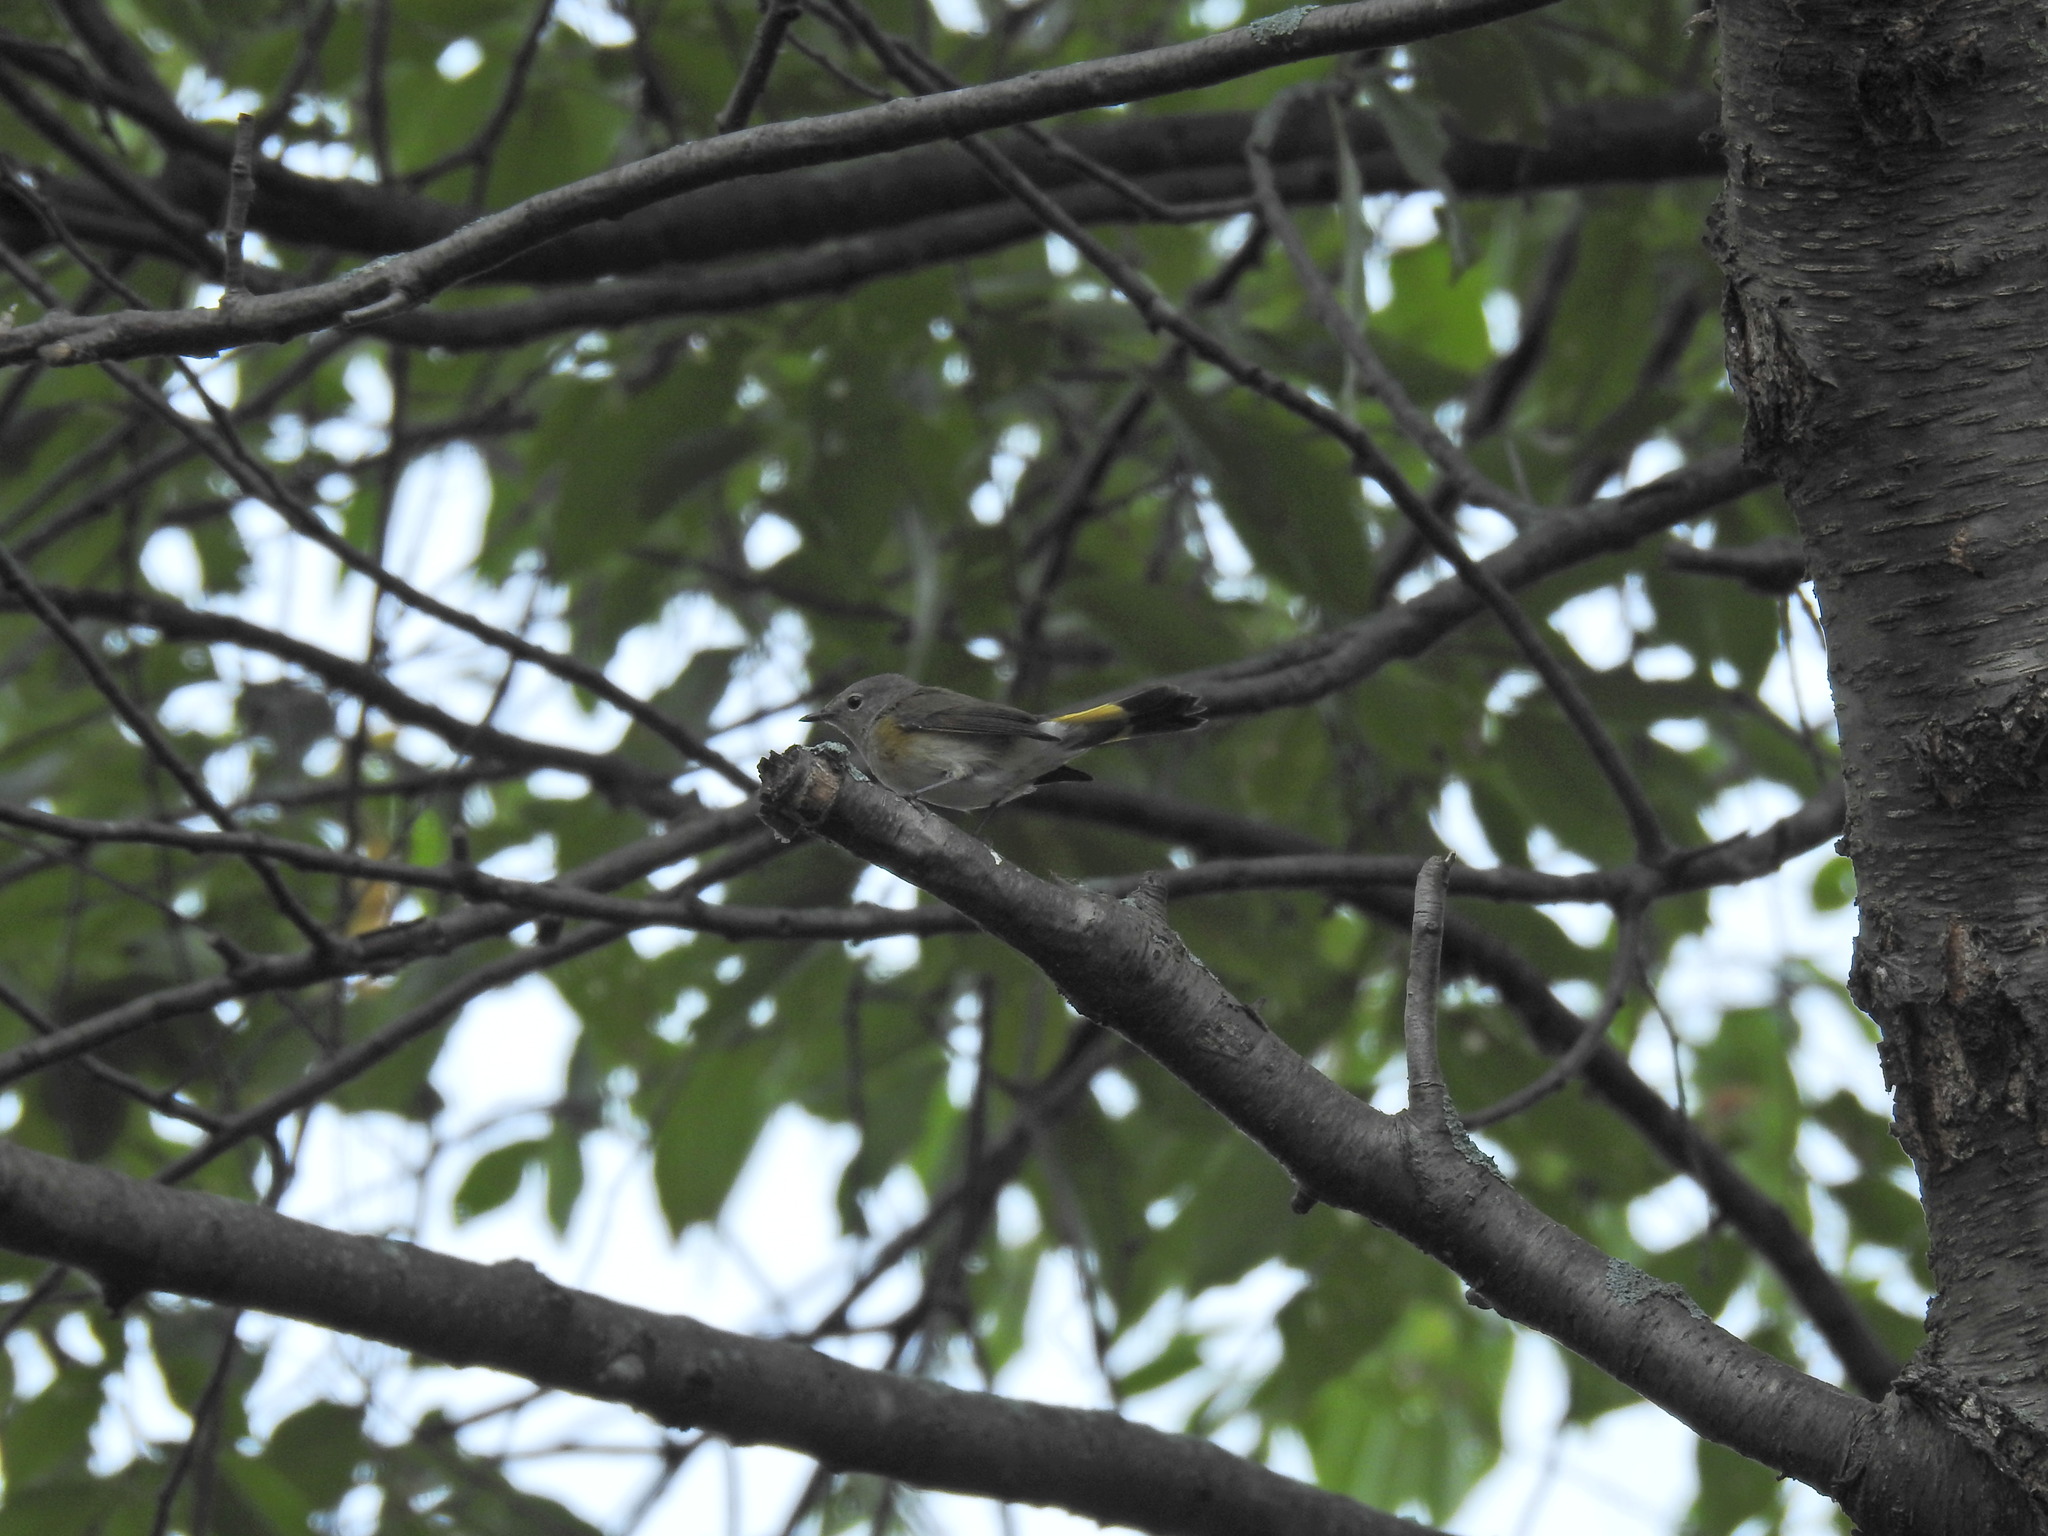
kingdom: Animalia
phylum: Chordata
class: Aves
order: Passeriformes
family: Parulidae
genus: Setophaga
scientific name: Setophaga ruticilla
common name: American redstart
